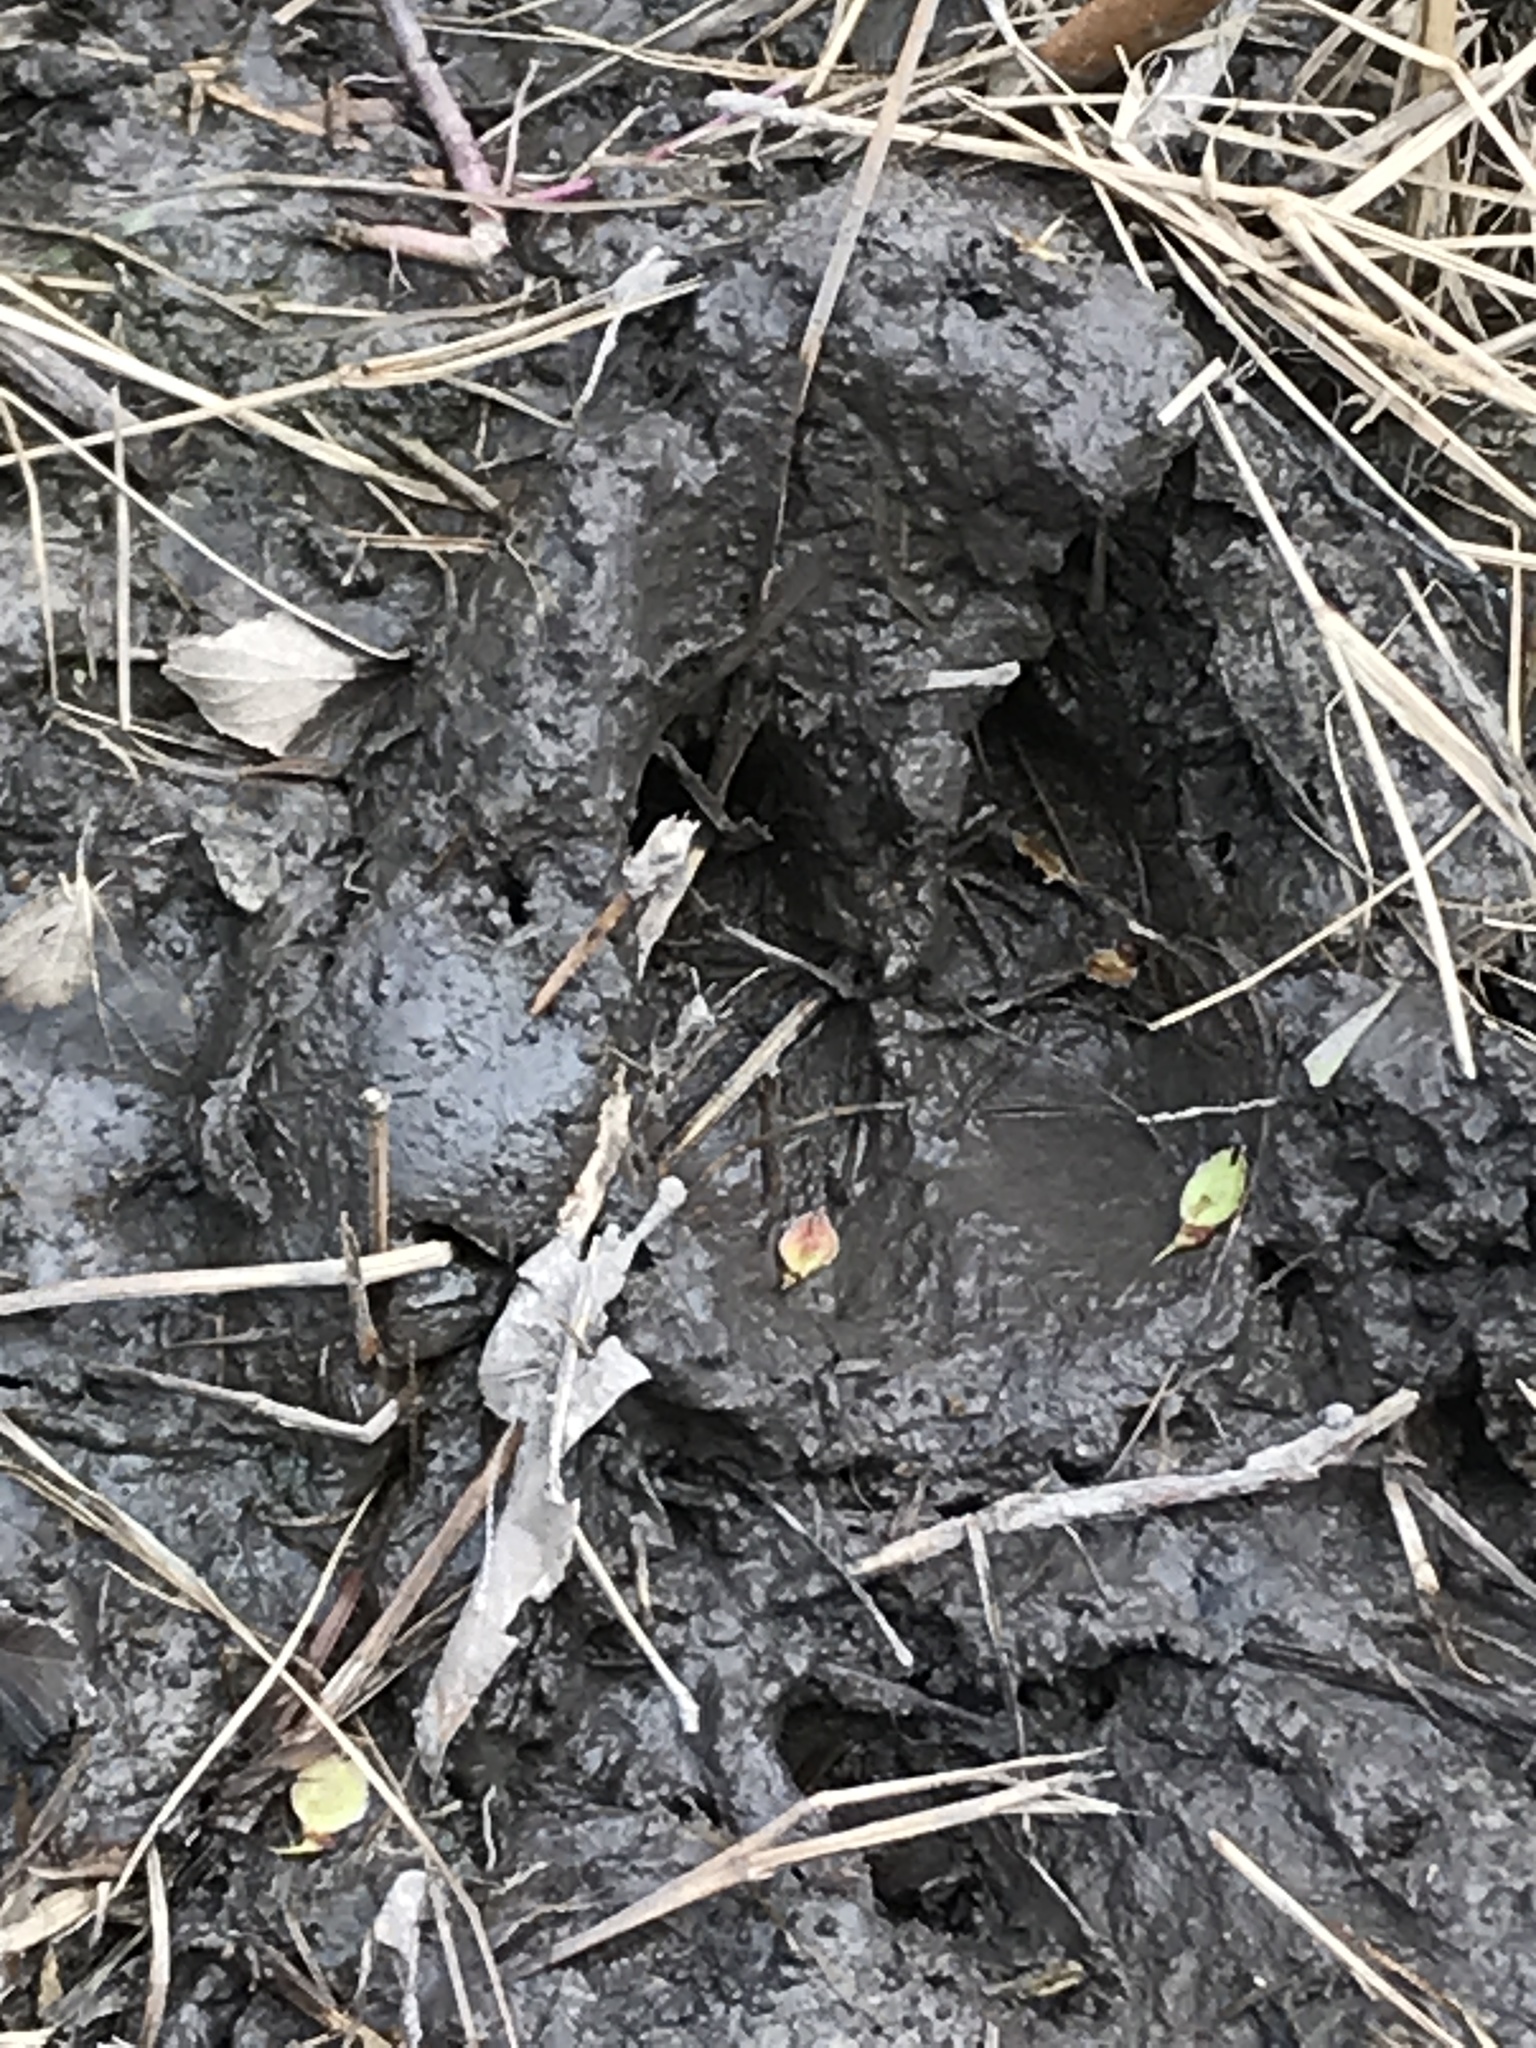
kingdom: Animalia
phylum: Chordata
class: Mammalia
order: Artiodactyla
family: Suidae
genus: Sus
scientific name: Sus scrofa
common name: Wild boar
